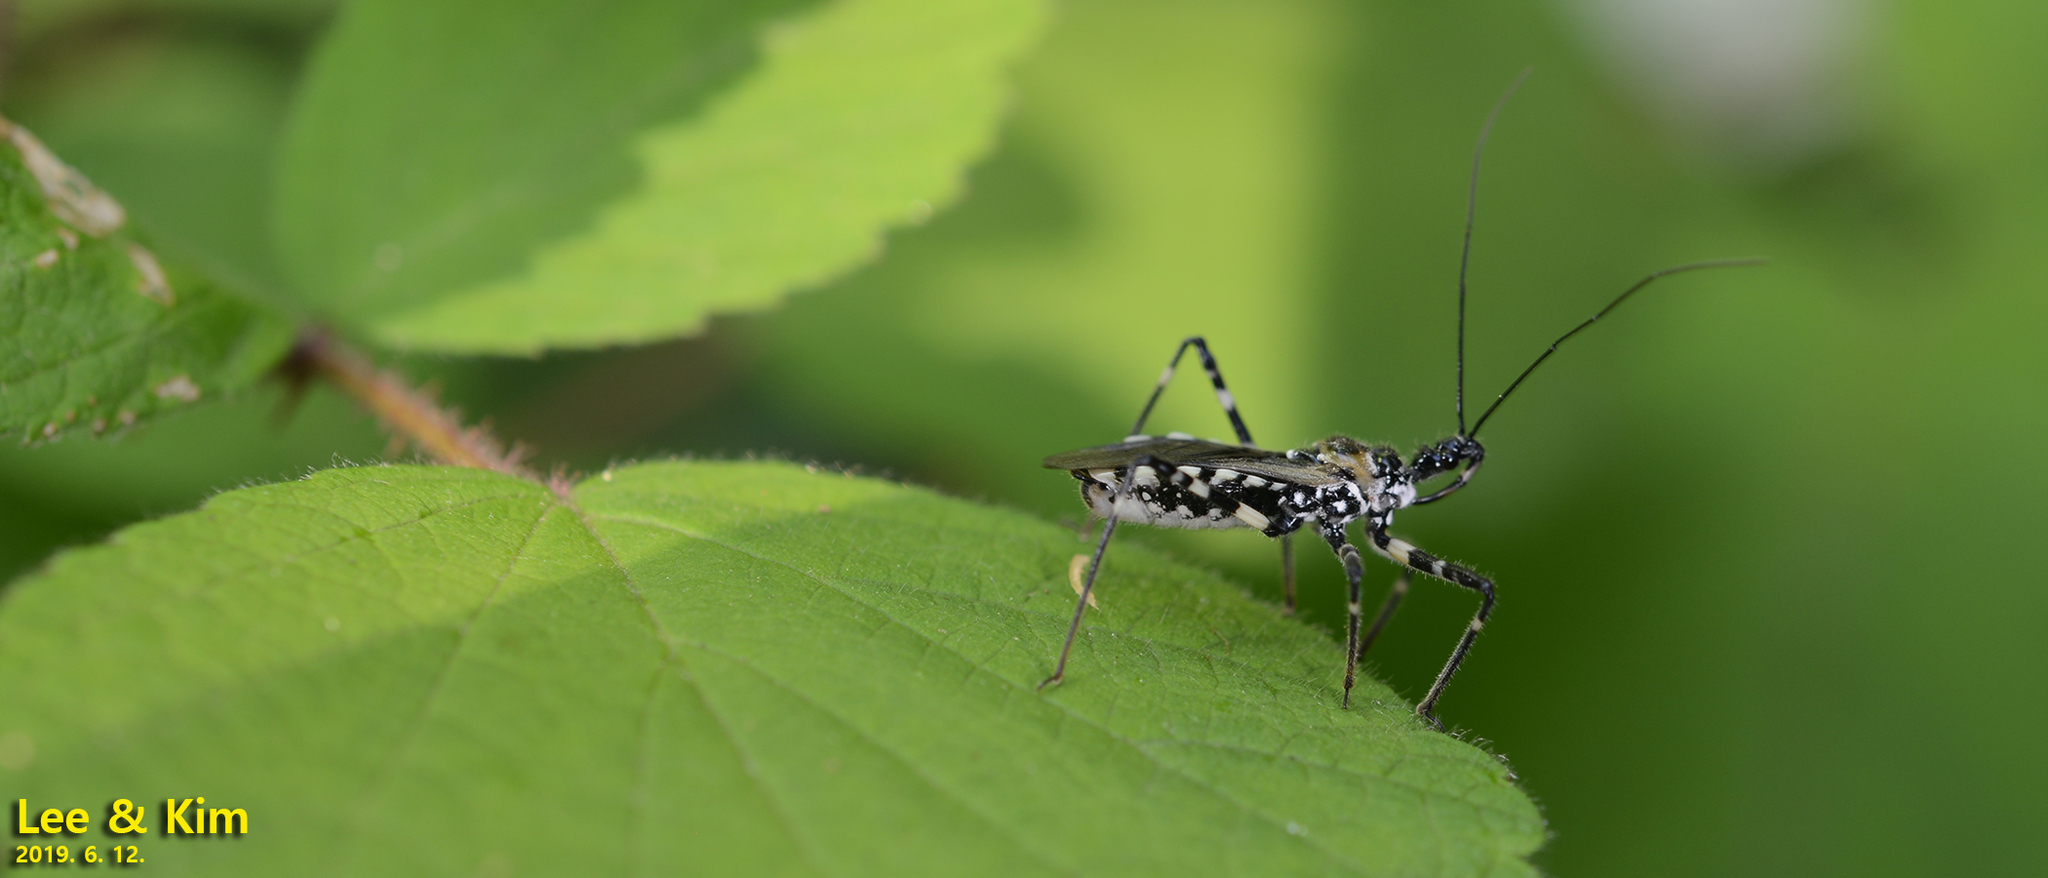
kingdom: Animalia
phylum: Arthropoda
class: Insecta
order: Hemiptera
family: Reduviidae
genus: Sphedanolestes
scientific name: Sphedanolestes impressicollis
